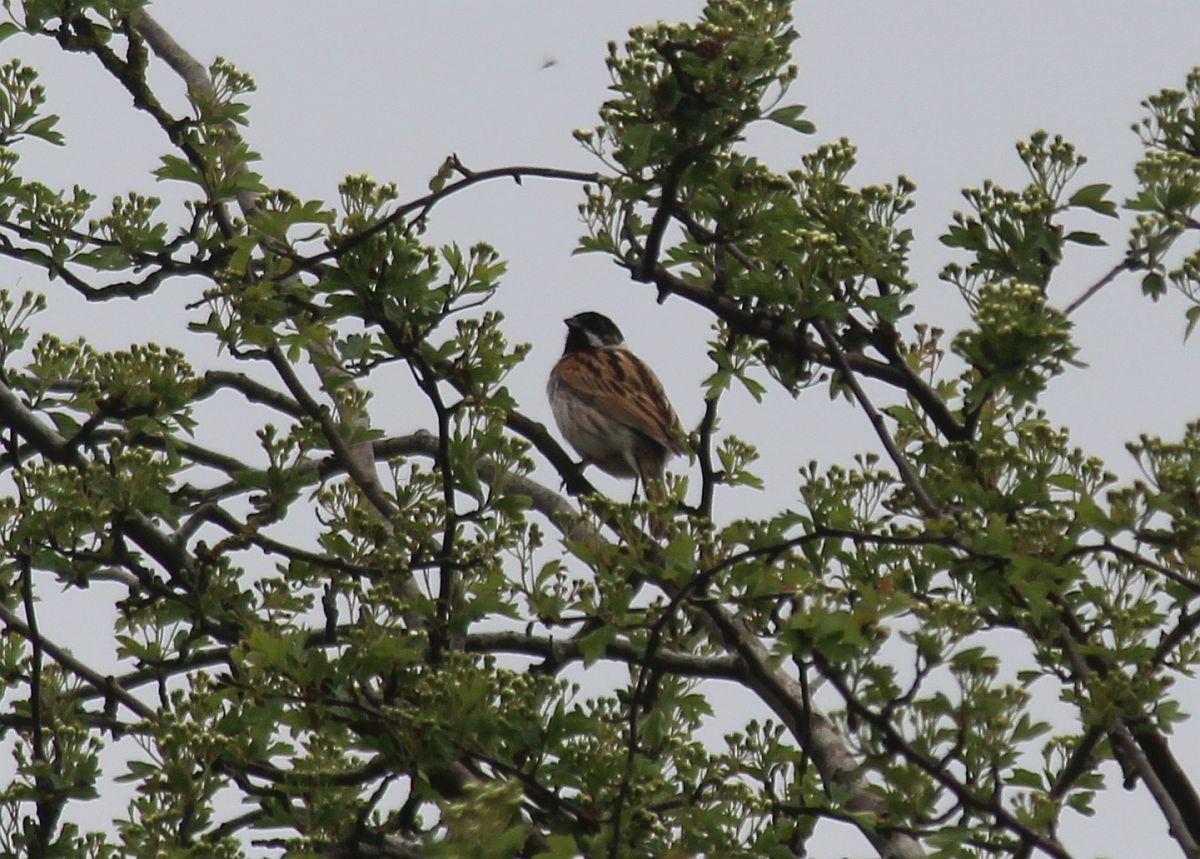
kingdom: Animalia
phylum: Chordata
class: Aves
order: Passeriformes
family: Emberizidae
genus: Emberiza
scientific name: Emberiza schoeniclus
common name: Reed bunting
